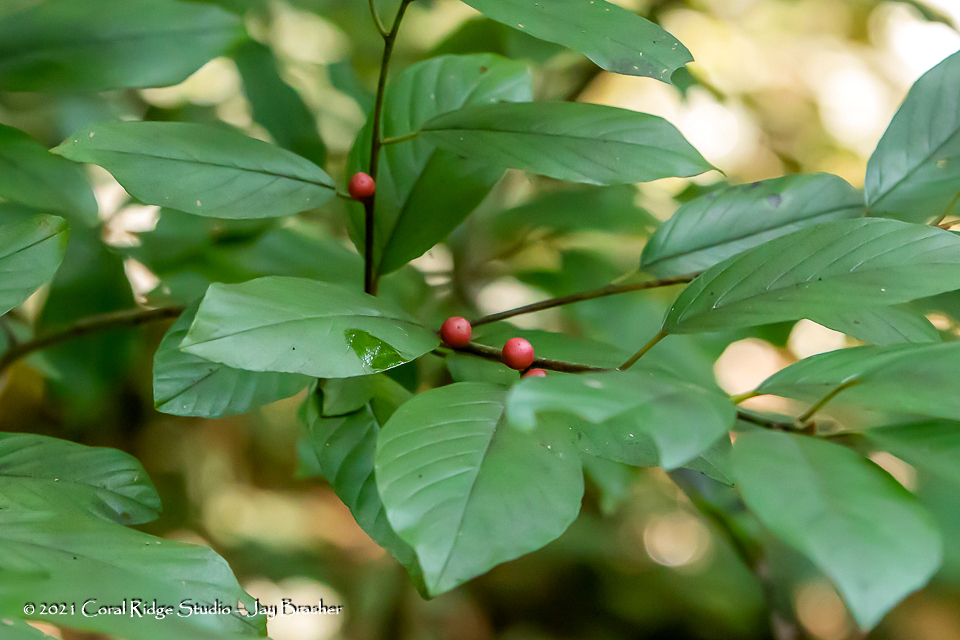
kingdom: Plantae
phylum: Tracheophyta
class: Magnoliopsida
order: Rosales
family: Rhamnaceae
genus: Frangula
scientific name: Frangula caroliniana
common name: Carolina buckthorn
